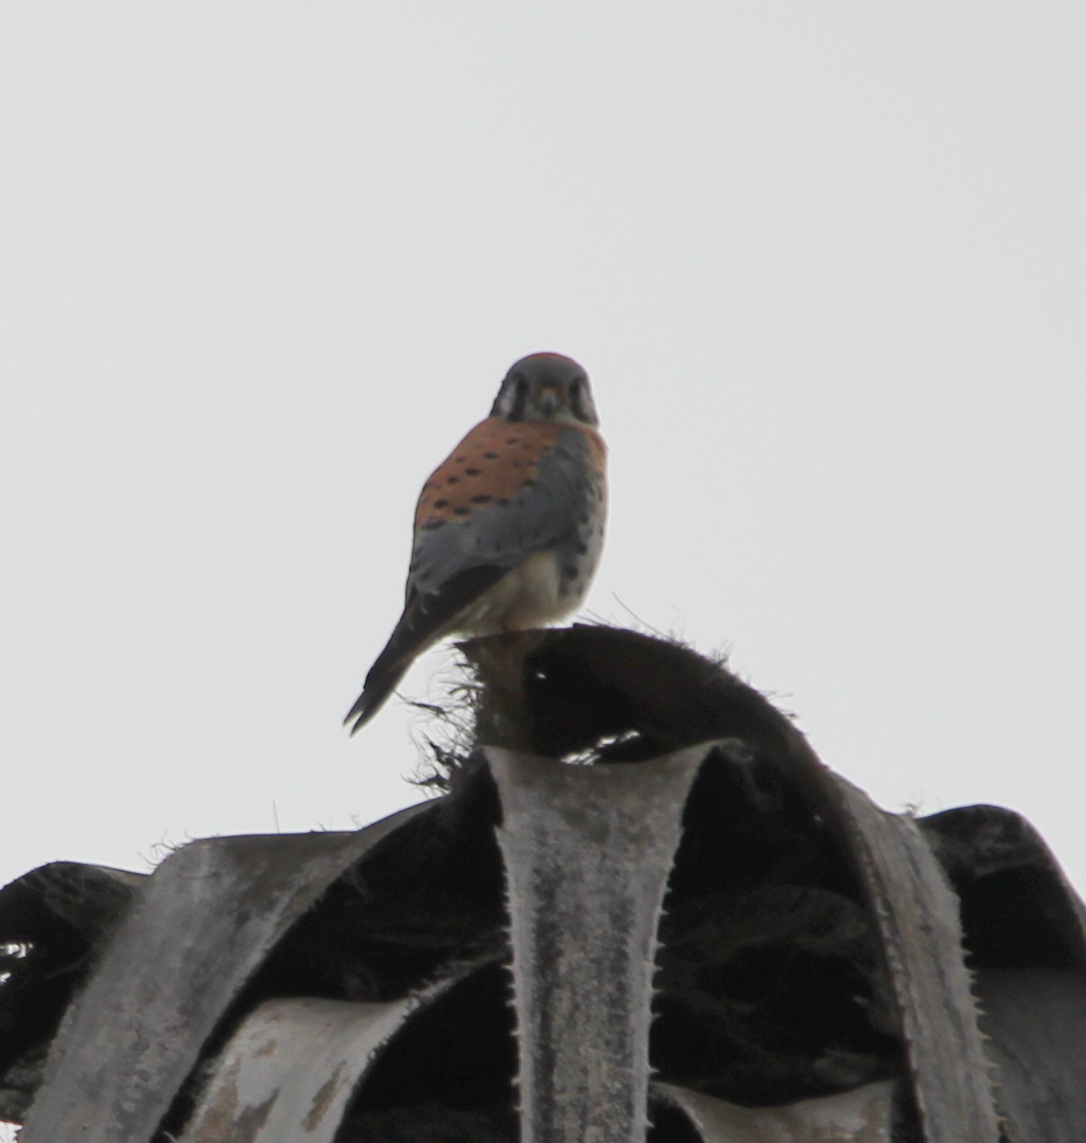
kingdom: Animalia
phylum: Chordata
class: Aves
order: Falconiformes
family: Falconidae
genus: Falco
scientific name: Falco sparverius
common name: American kestrel
